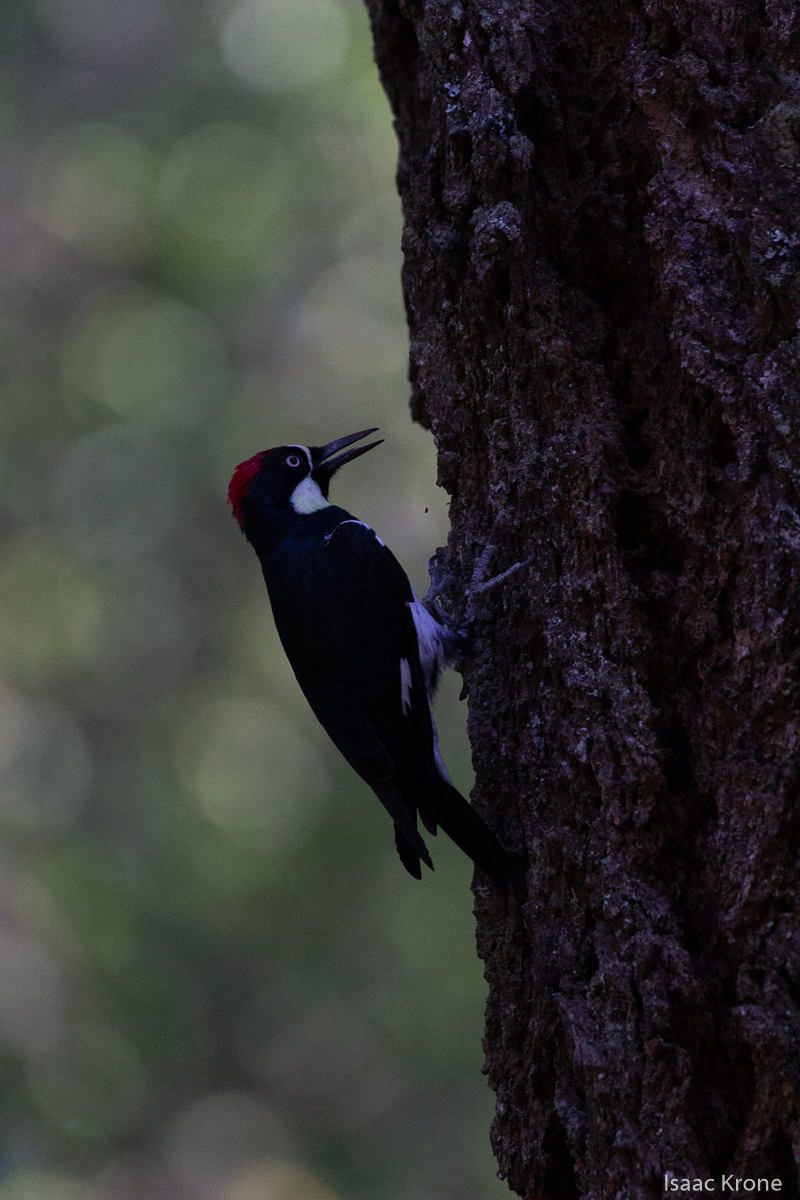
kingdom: Animalia
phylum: Chordata
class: Aves
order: Piciformes
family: Picidae
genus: Melanerpes
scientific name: Melanerpes formicivorus
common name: Acorn woodpecker
